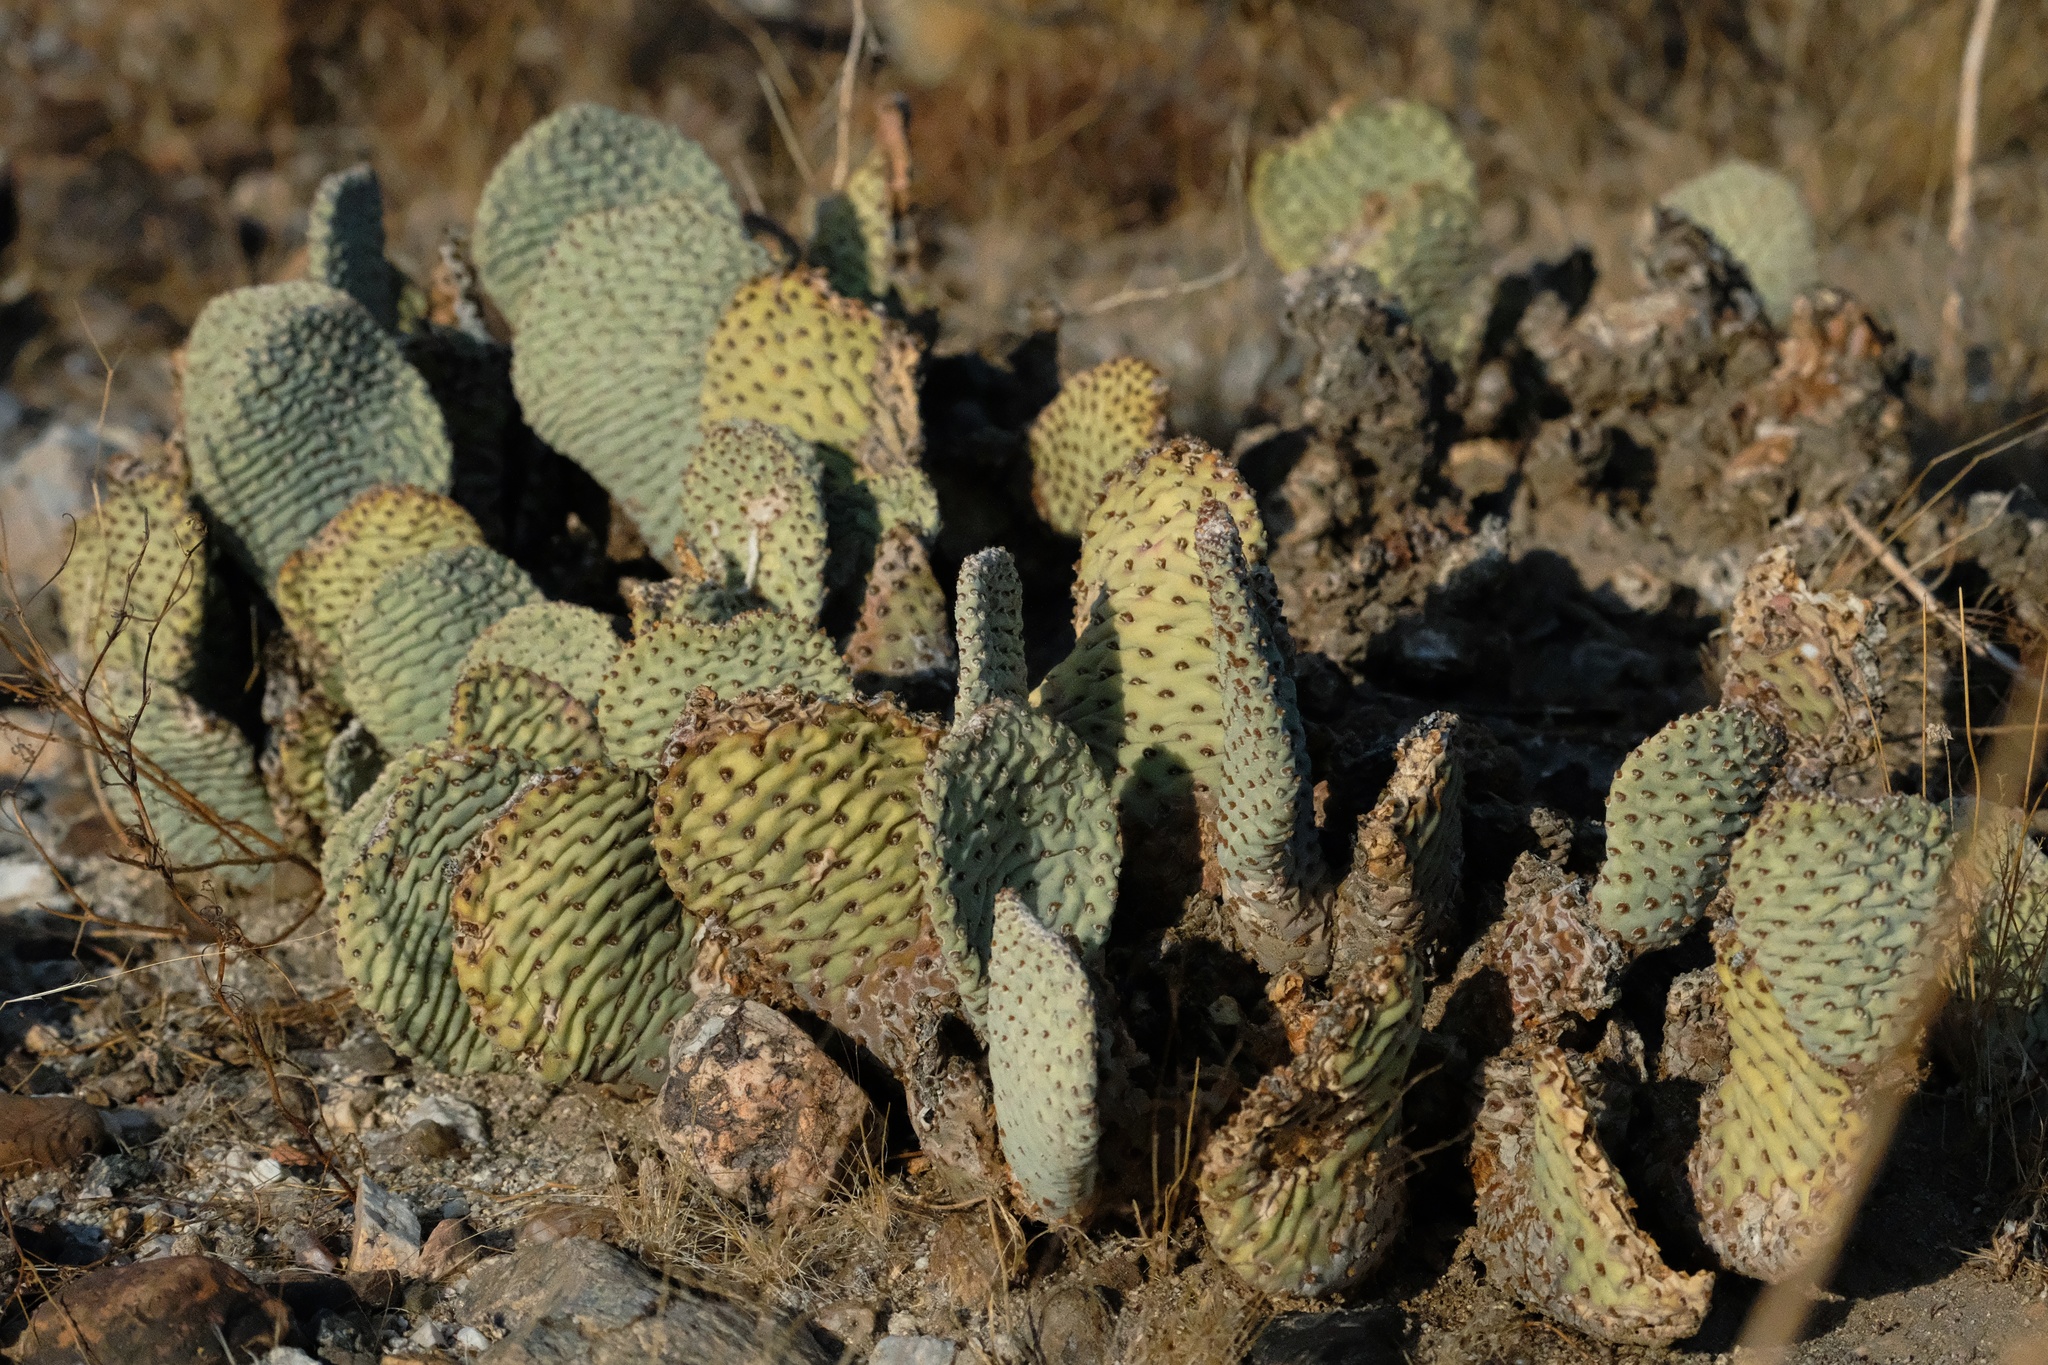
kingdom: Plantae
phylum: Tracheophyta
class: Magnoliopsida
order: Caryophyllales
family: Cactaceae
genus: Opuntia
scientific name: Opuntia basilaris
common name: Beavertail prickly-pear
